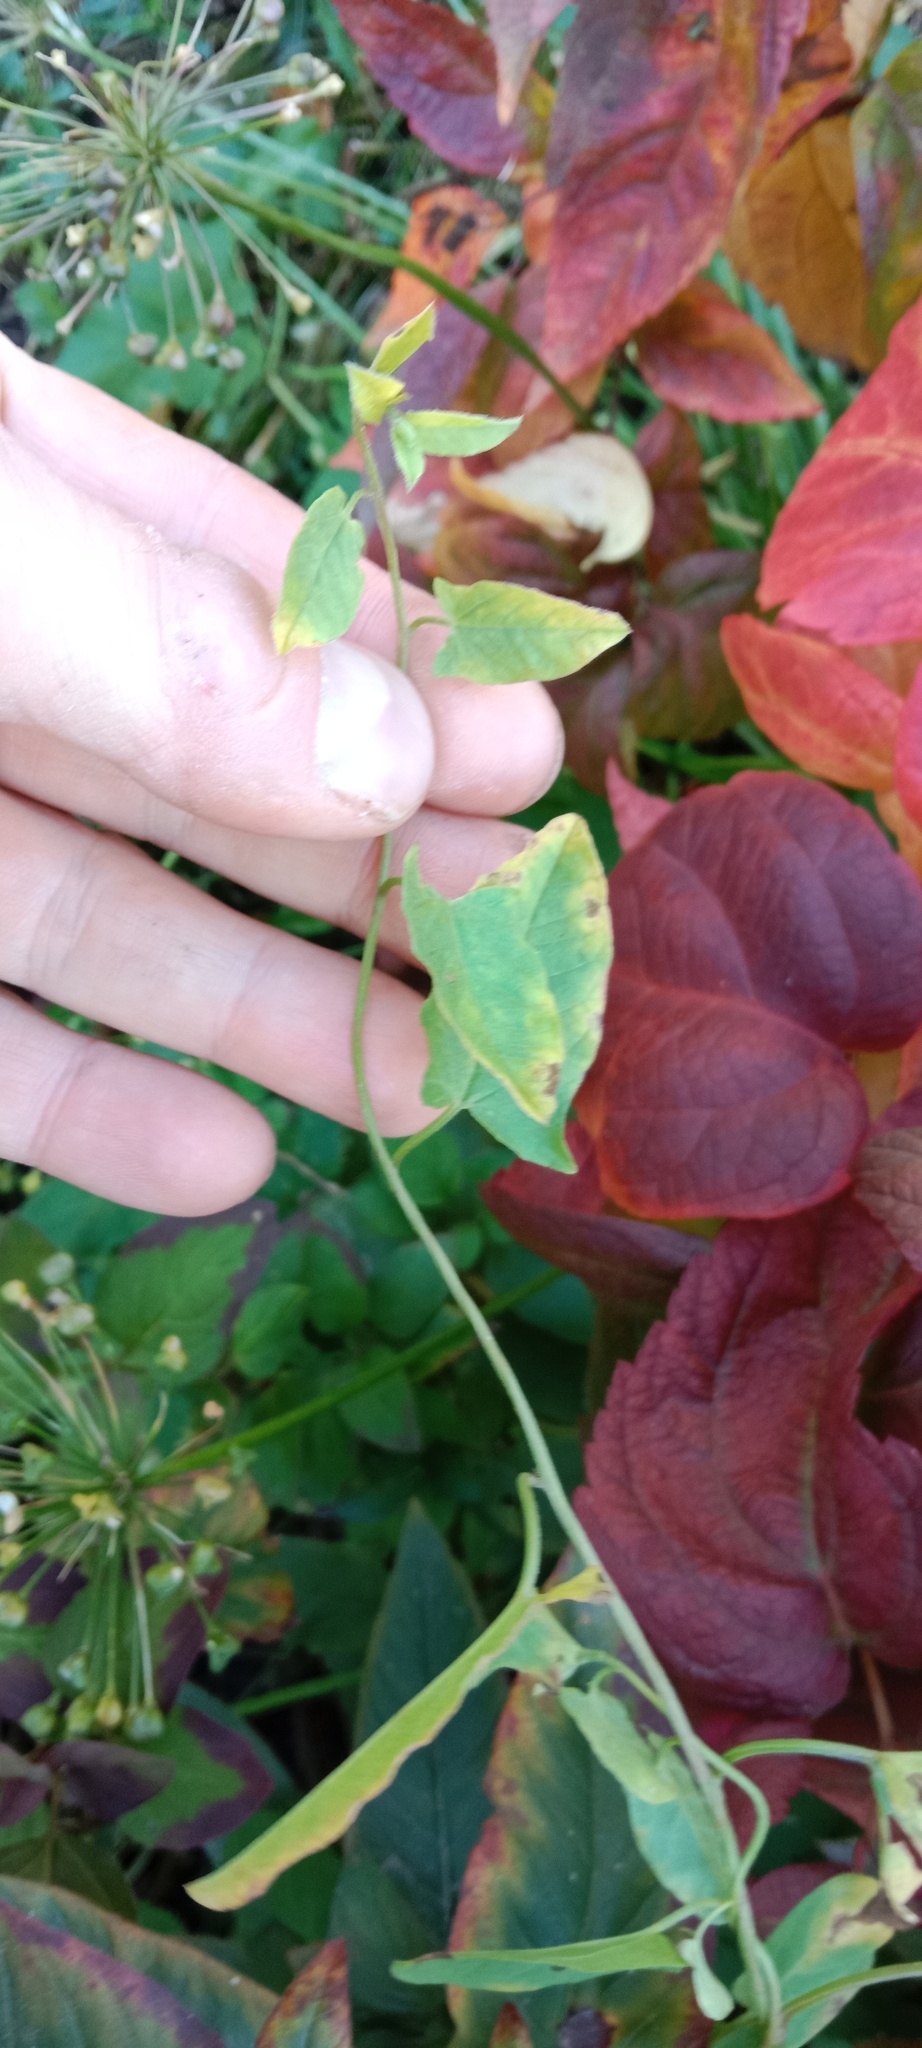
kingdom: Plantae
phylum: Tracheophyta
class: Magnoliopsida
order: Solanales
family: Convolvulaceae
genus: Convolvulus
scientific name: Convolvulus arvensis
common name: Field bindweed
